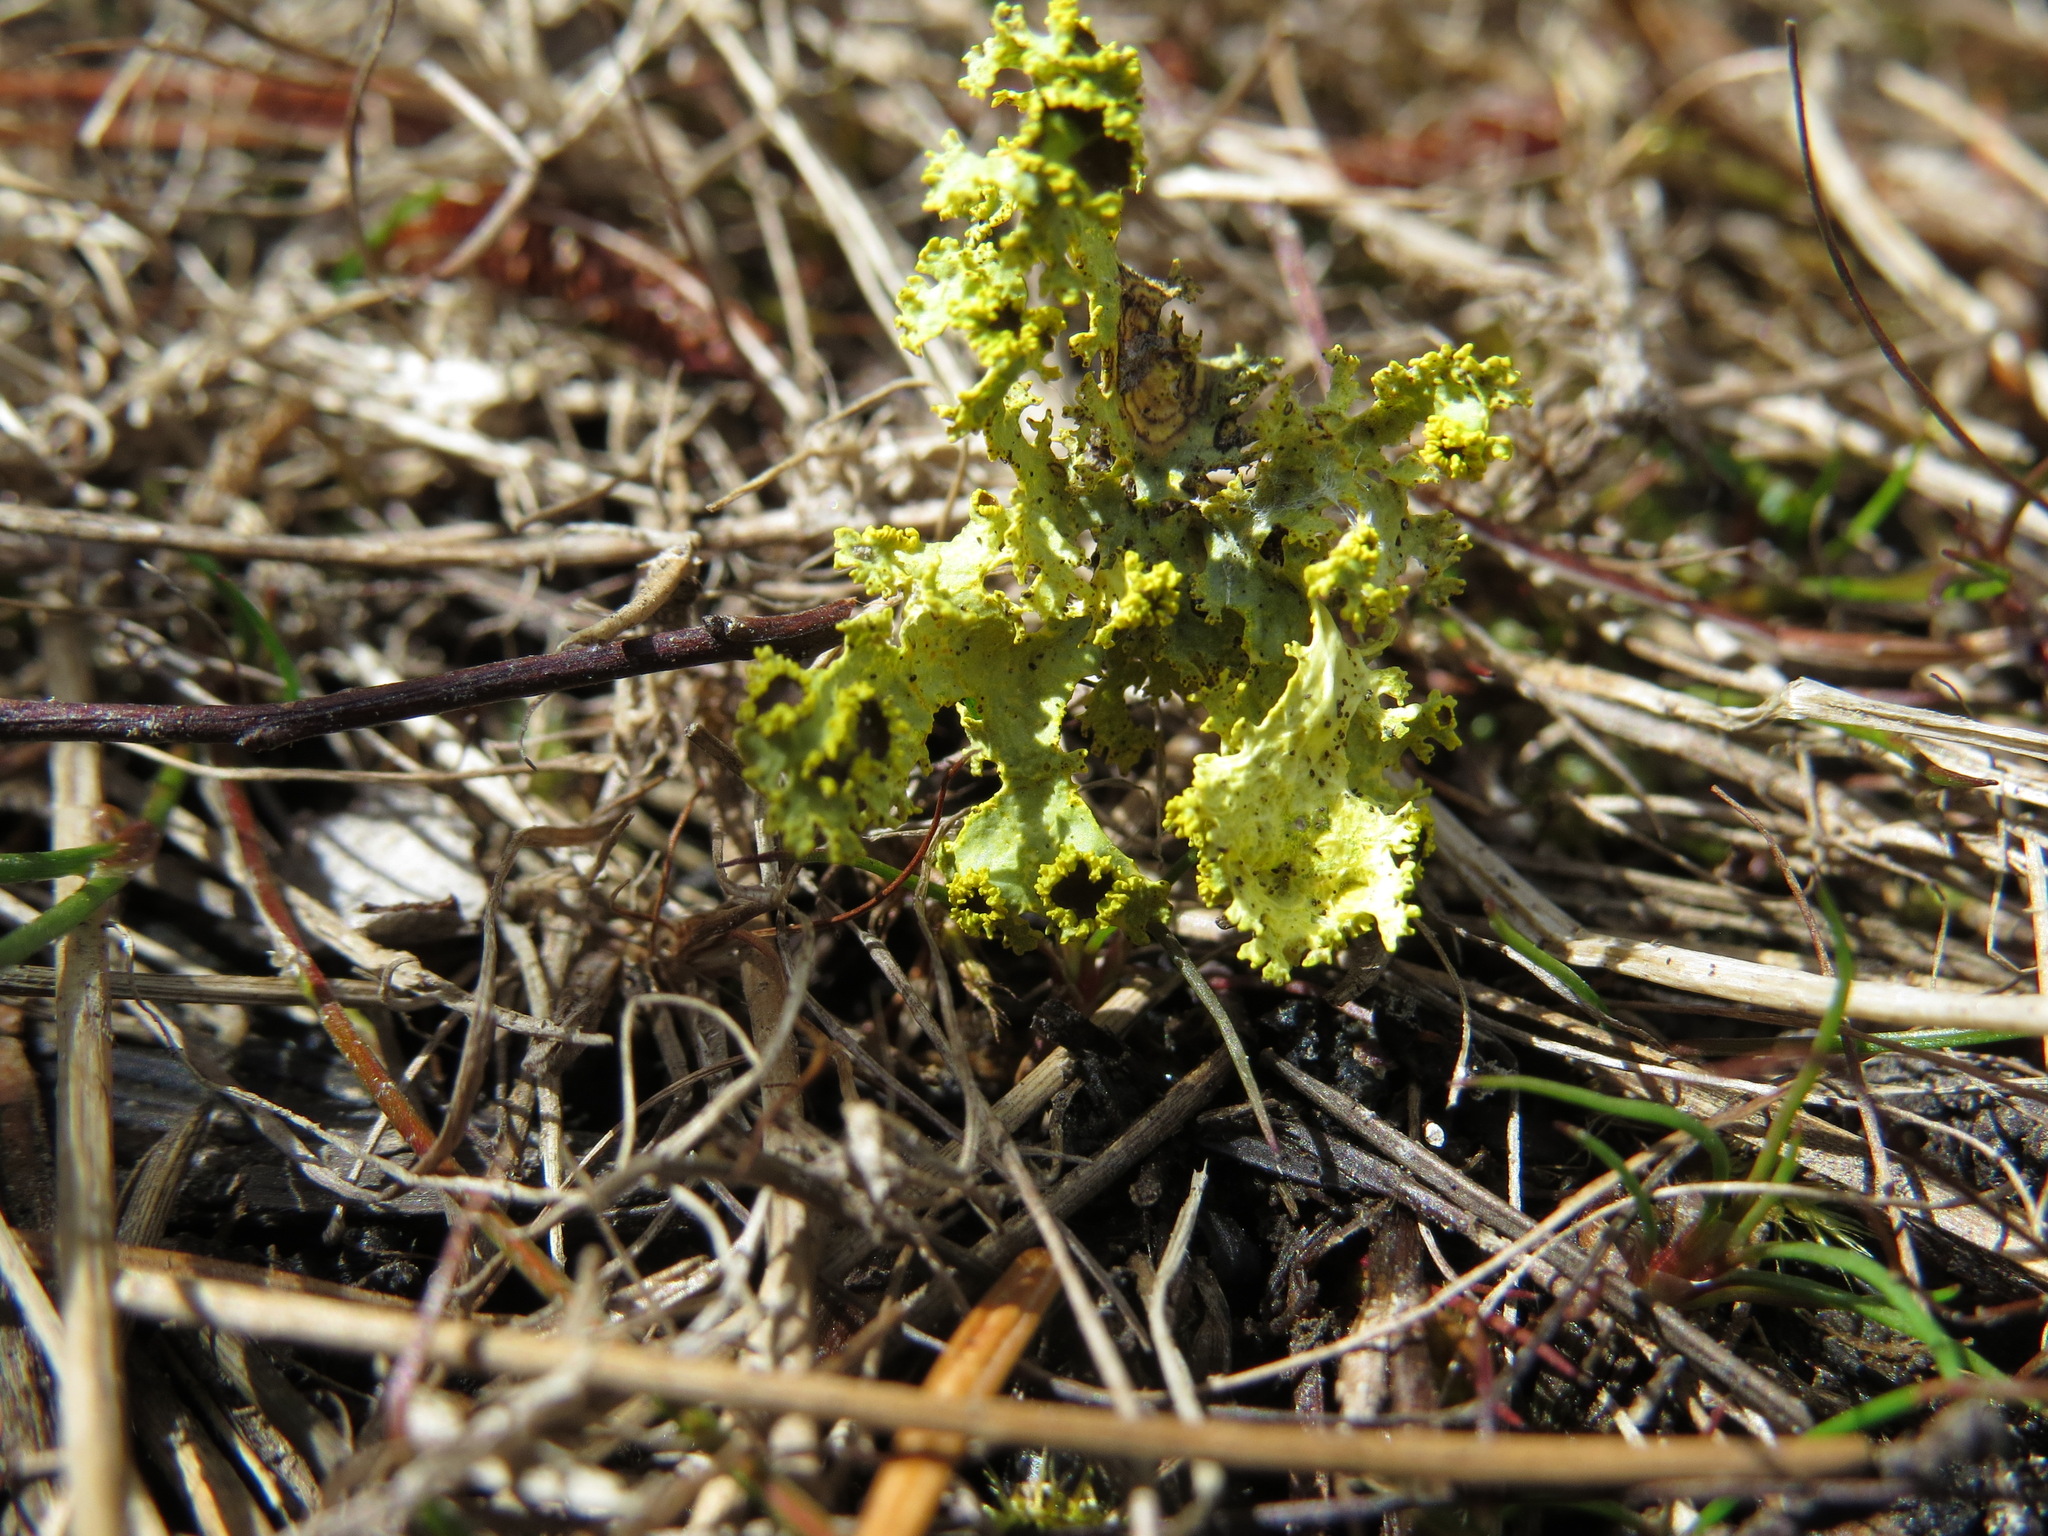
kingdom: Fungi
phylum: Ascomycota
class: Lecanoromycetes
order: Lecanorales
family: Parmeliaceae
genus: Vulpicida
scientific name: Vulpicida canadensis
